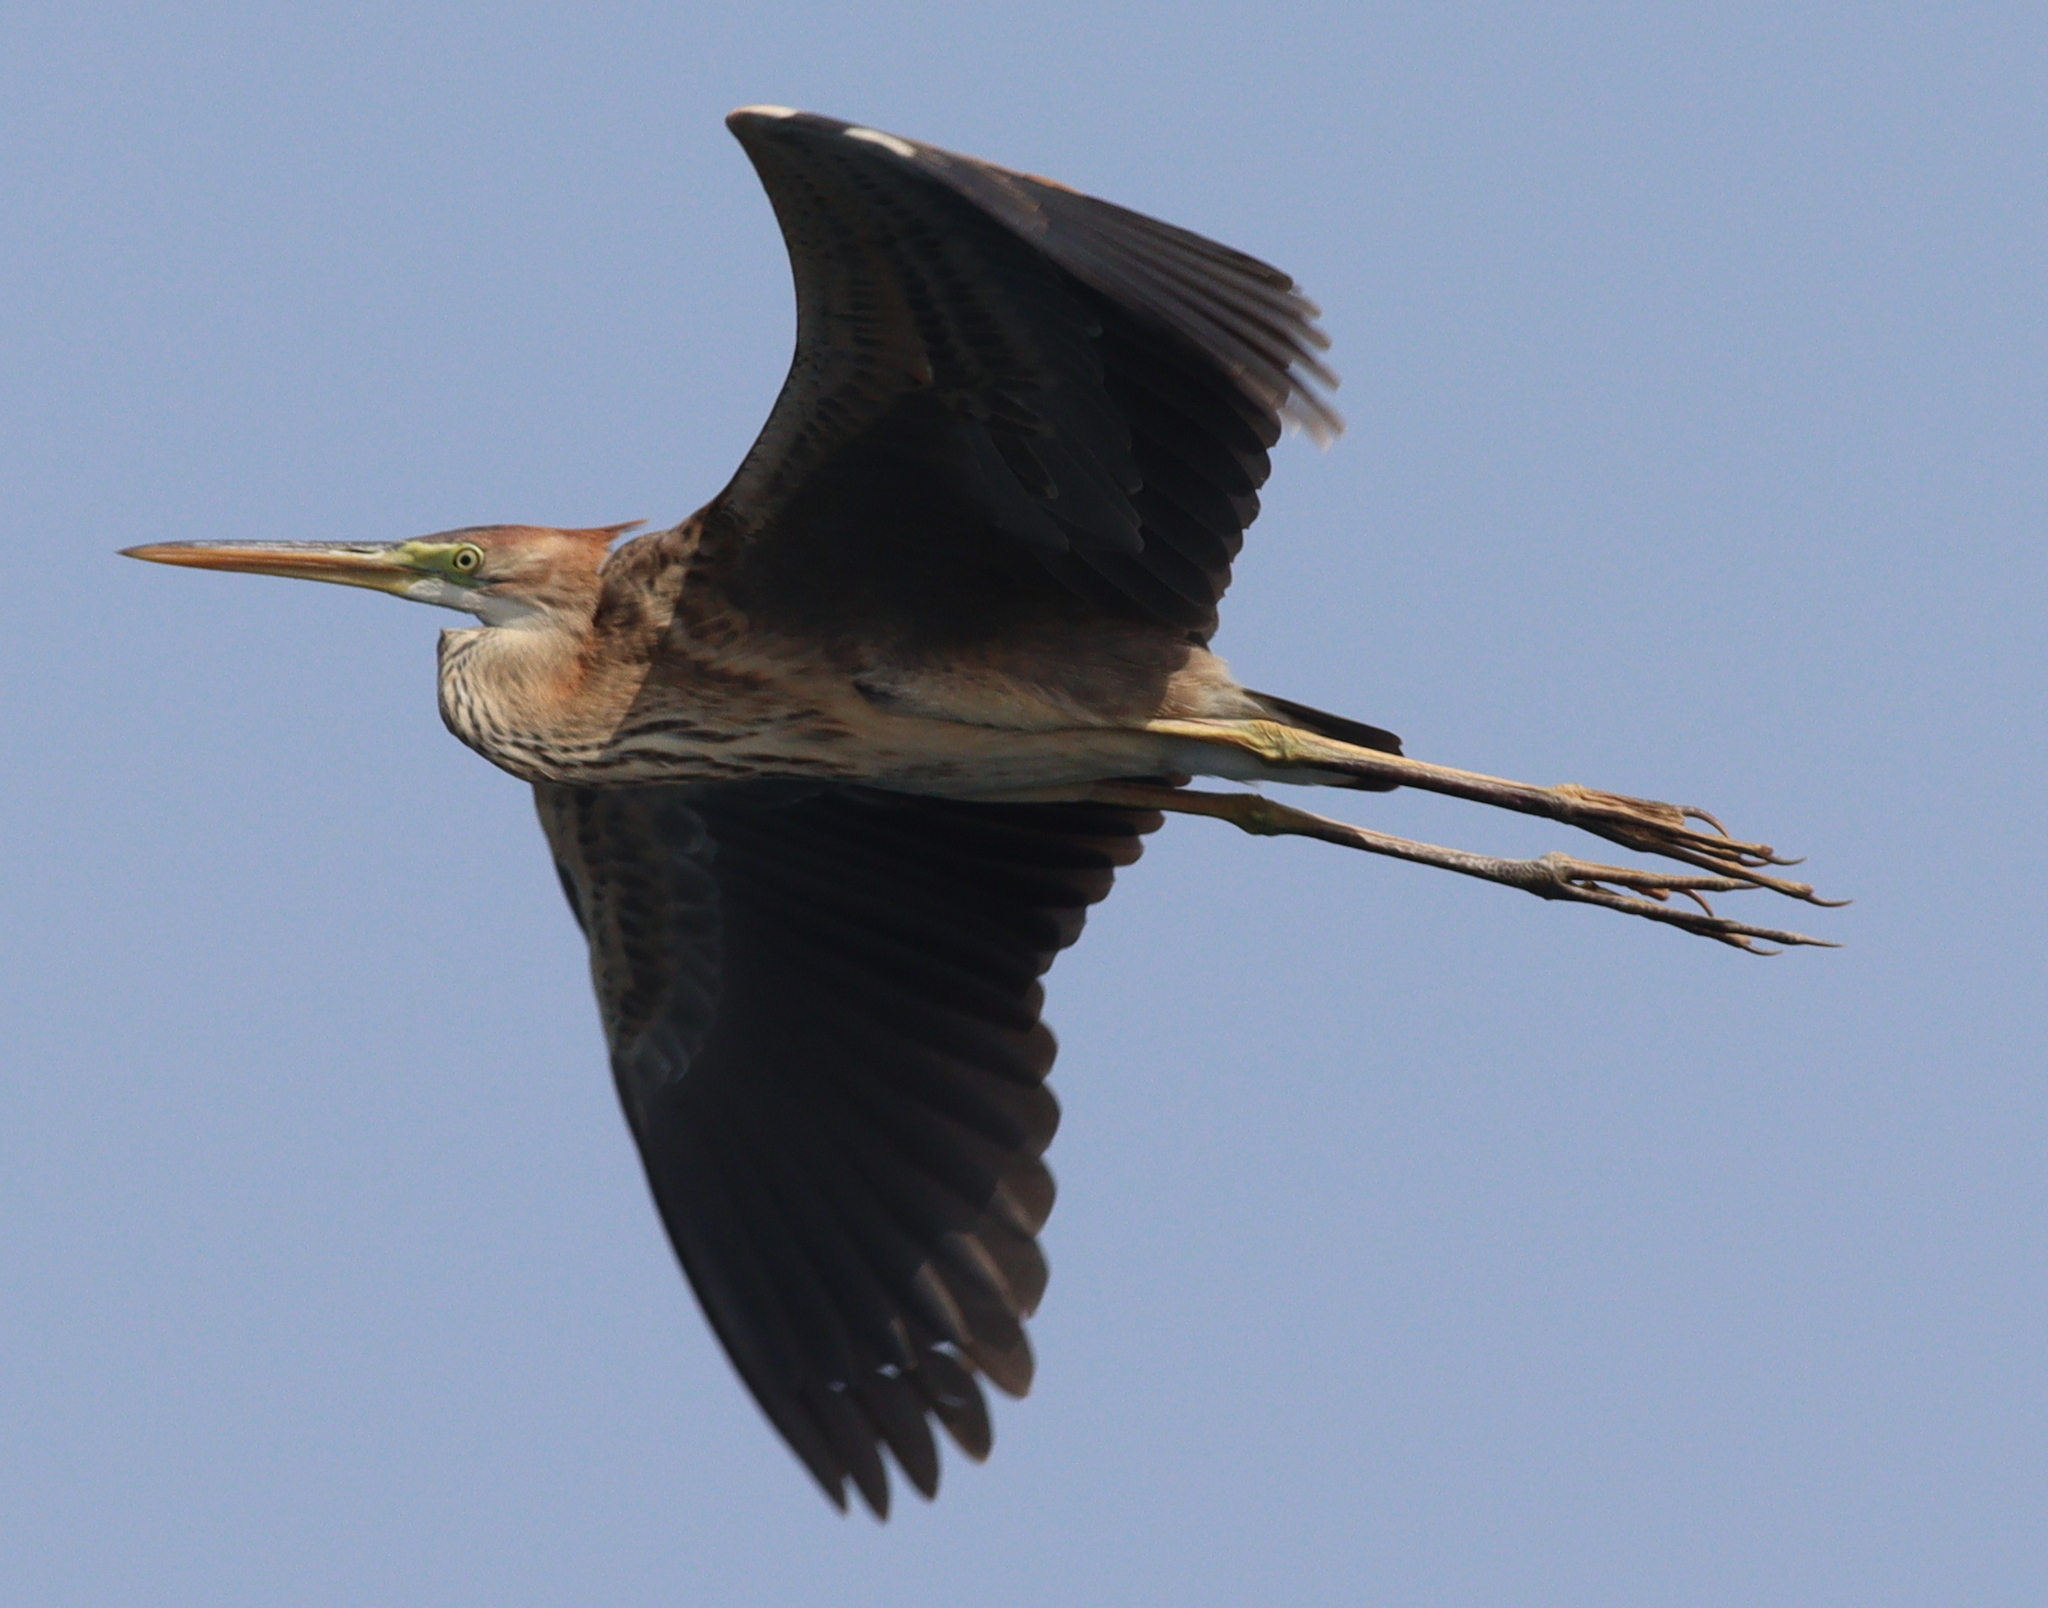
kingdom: Animalia
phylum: Chordata
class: Aves
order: Pelecaniformes
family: Ardeidae
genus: Ardea
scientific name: Ardea purpurea
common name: Purple heron
